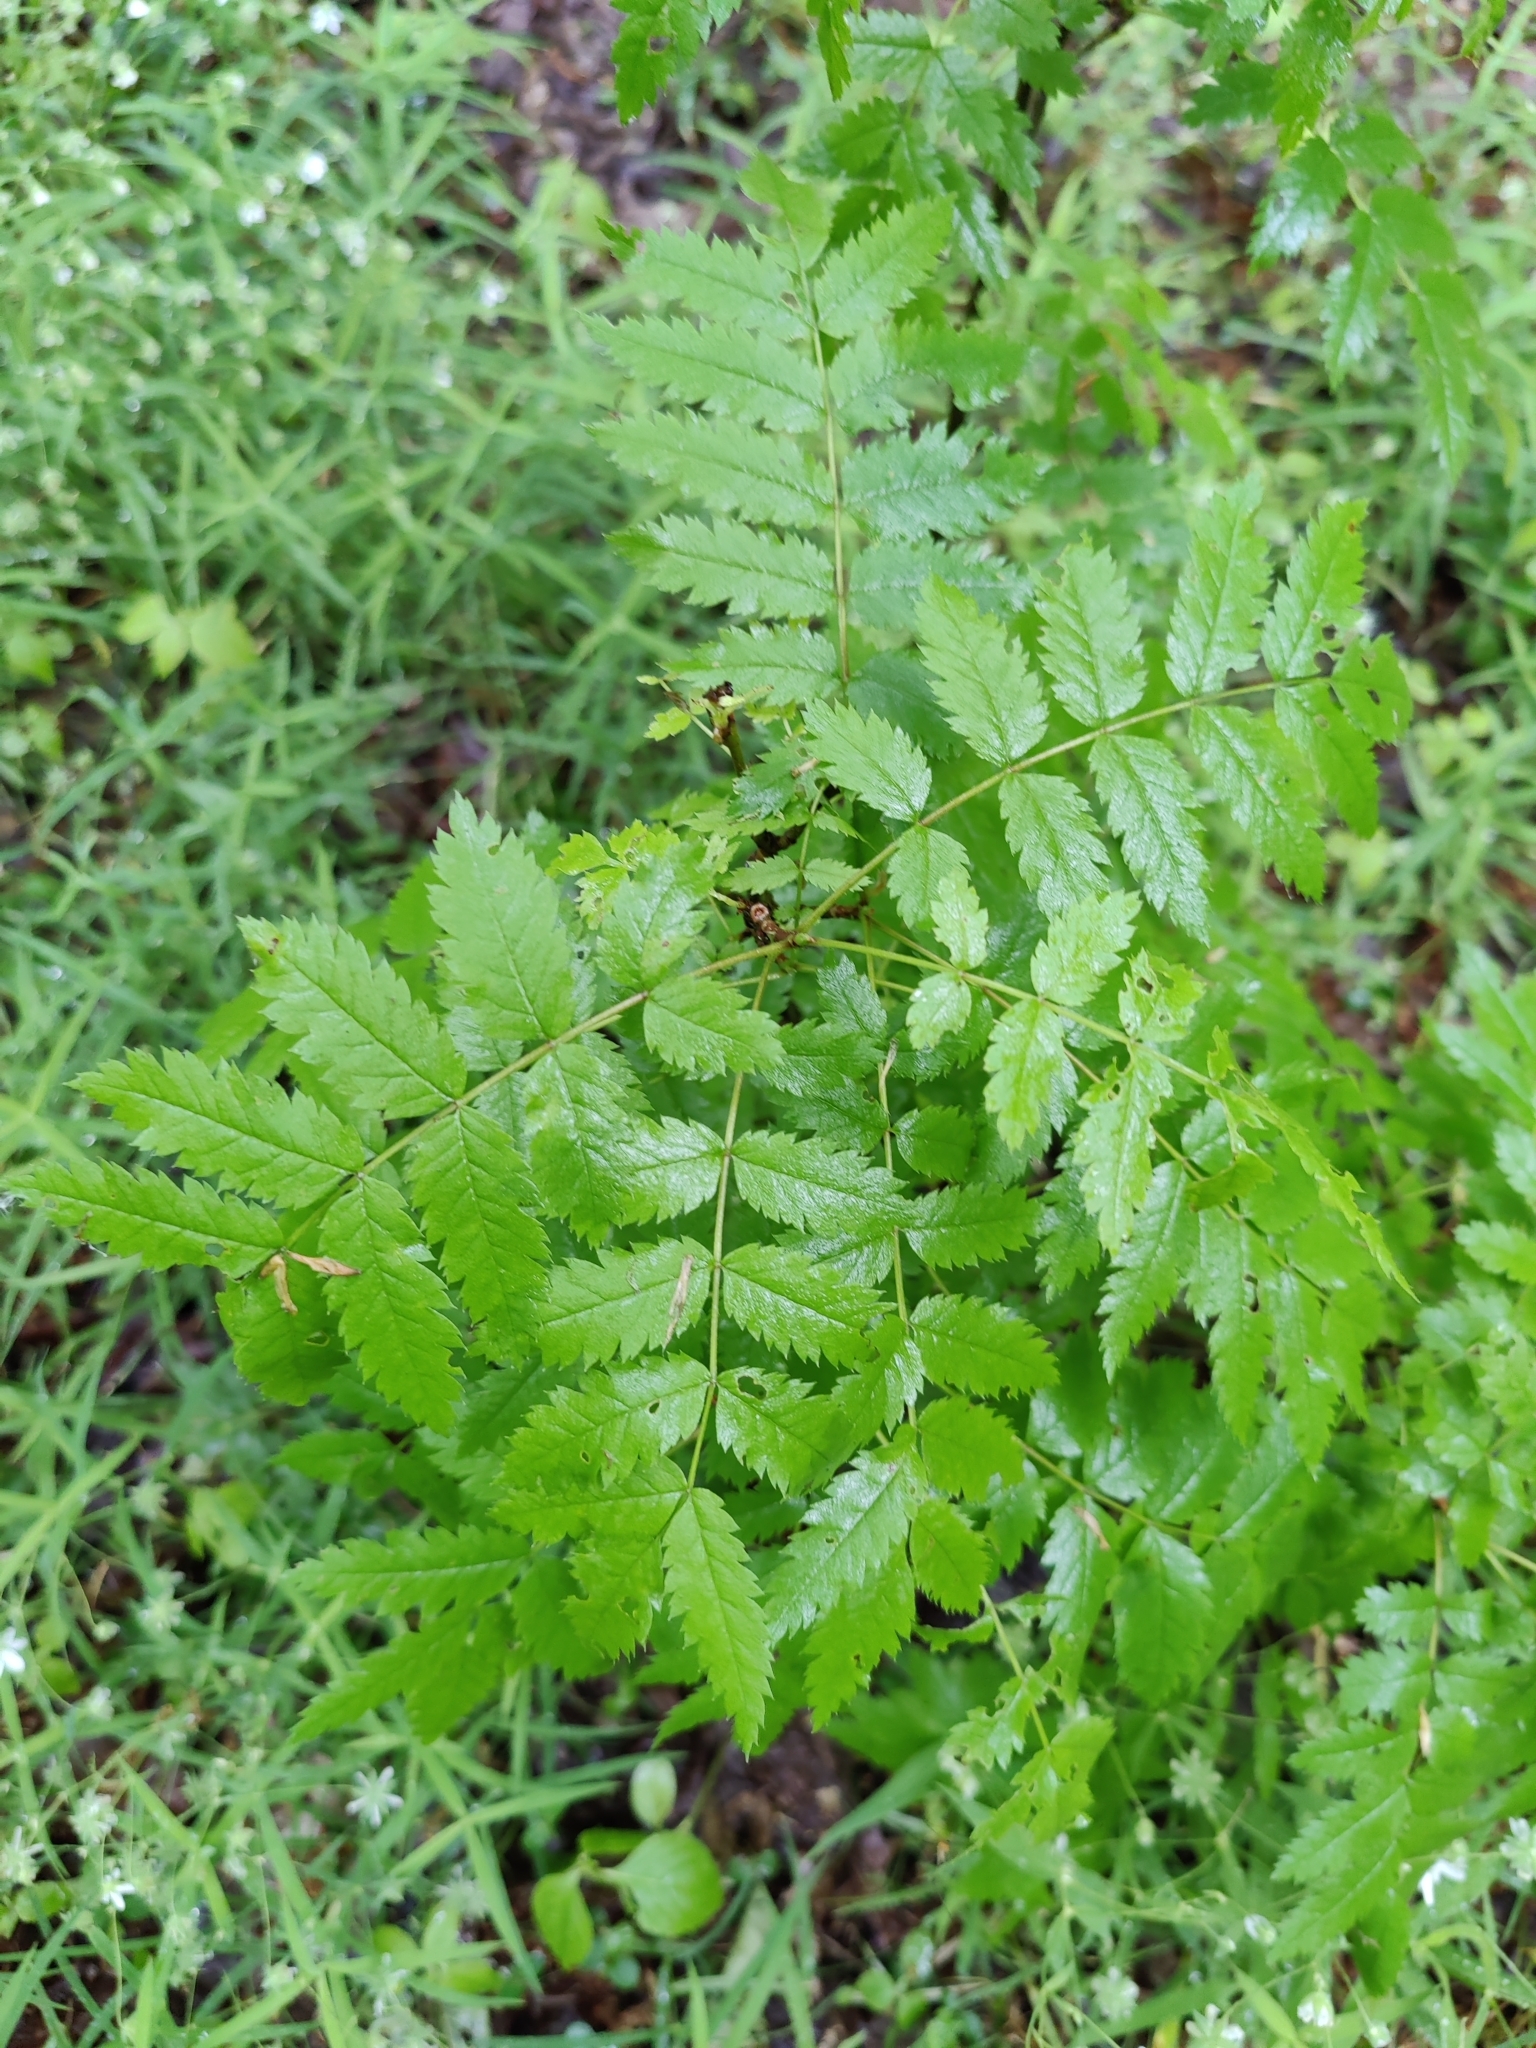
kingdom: Plantae
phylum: Tracheophyta
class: Magnoliopsida
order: Rosales
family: Rosaceae
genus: Sorbus
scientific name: Sorbus aucuparia
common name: Rowan
